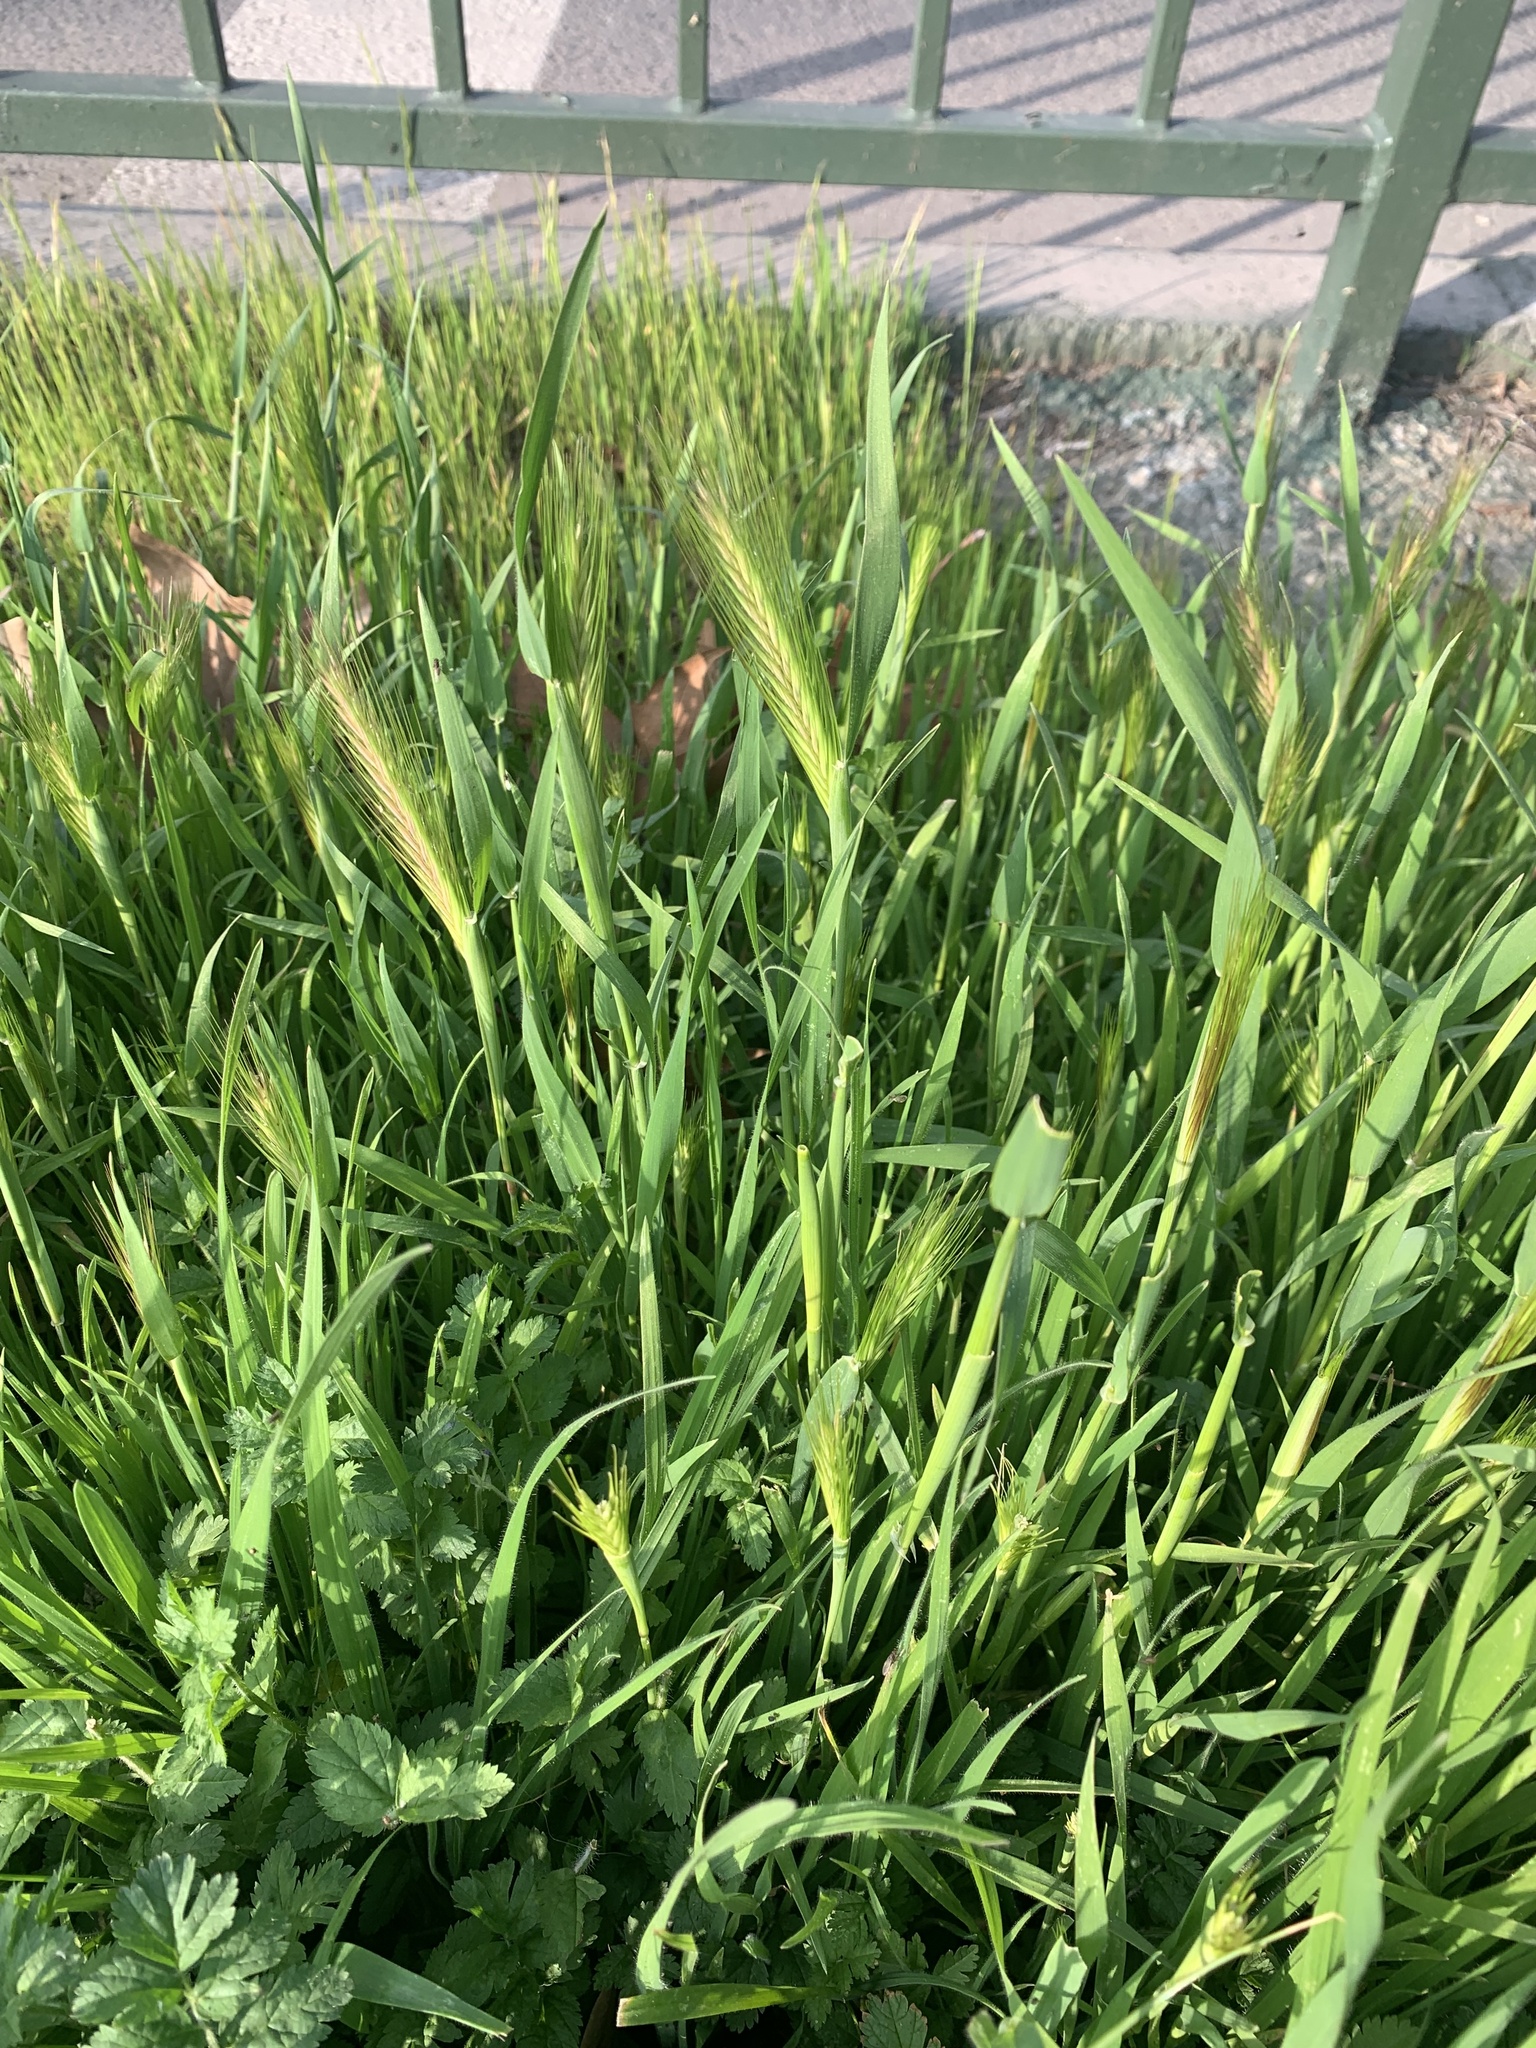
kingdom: Plantae
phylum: Tracheophyta
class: Liliopsida
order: Poales
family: Poaceae
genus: Hordeum
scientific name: Hordeum murinum
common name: Wall barley
